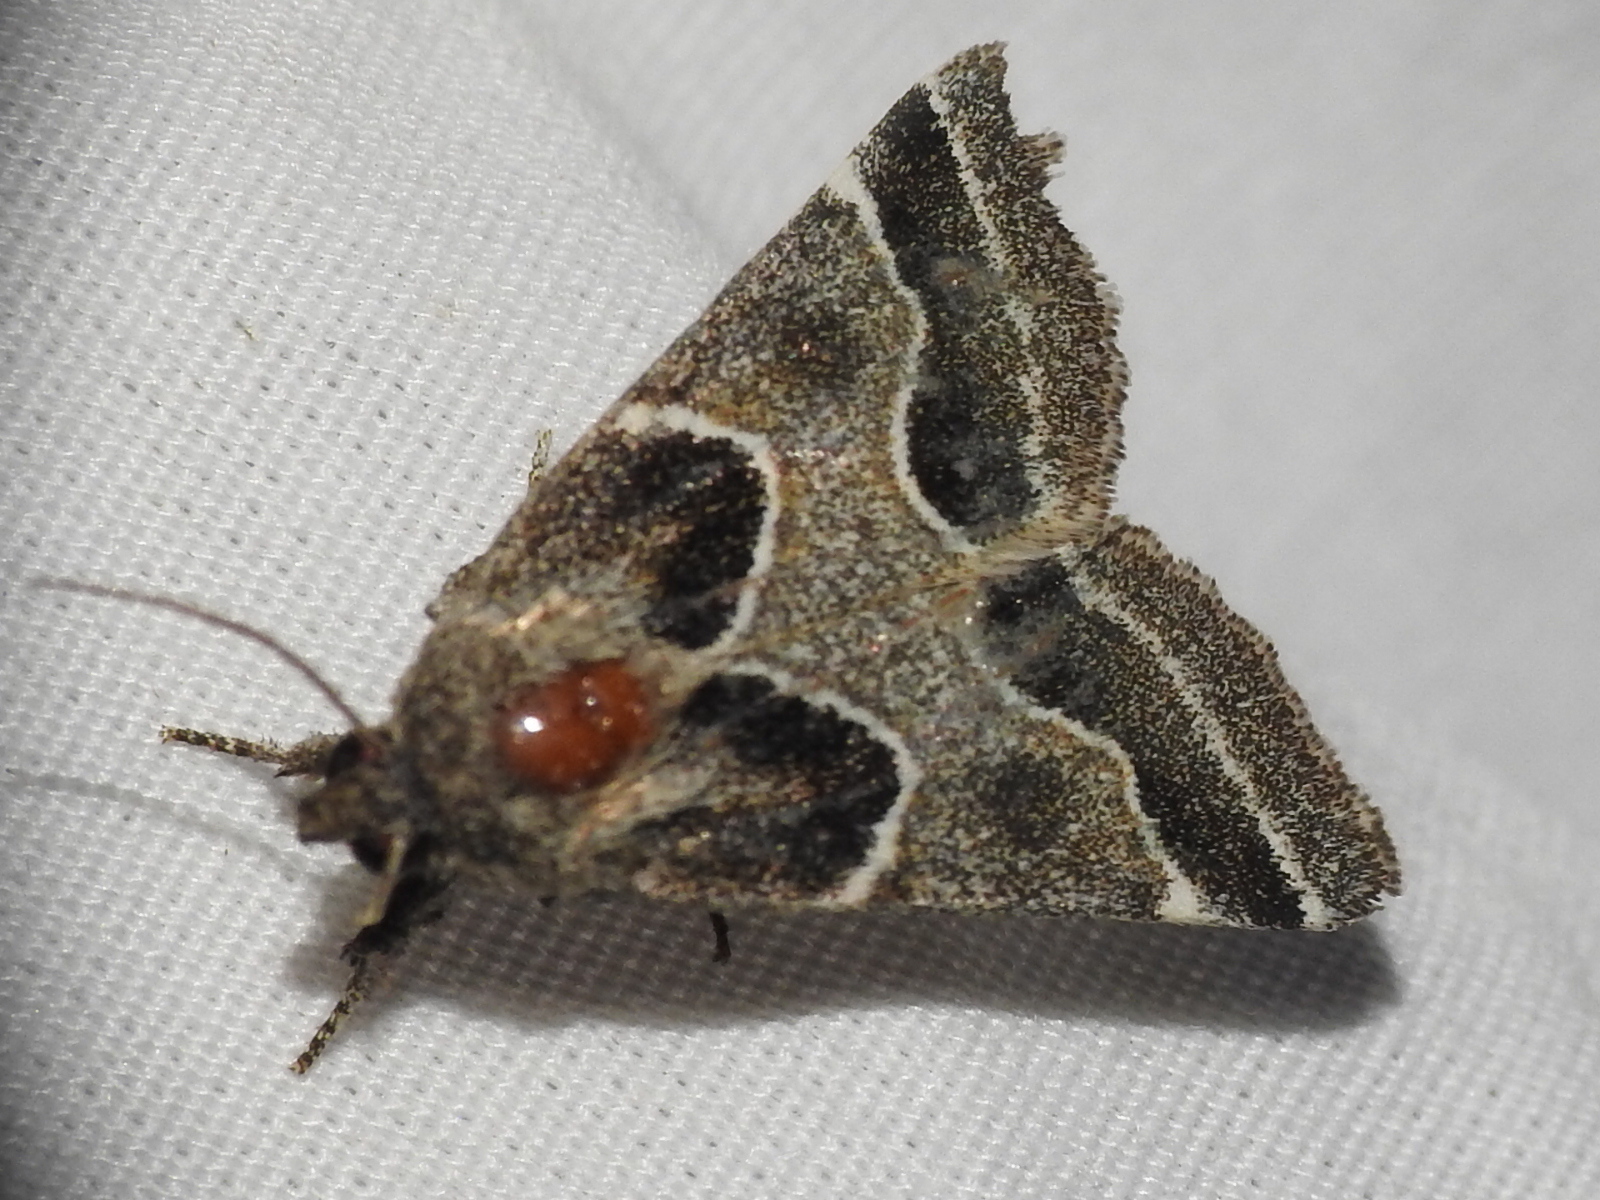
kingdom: Animalia
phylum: Arthropoda
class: Insecta
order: Lepidoptera
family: Noctuidae
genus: Schinia
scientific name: Schinia rivulosa
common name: Scarce meal-moth
